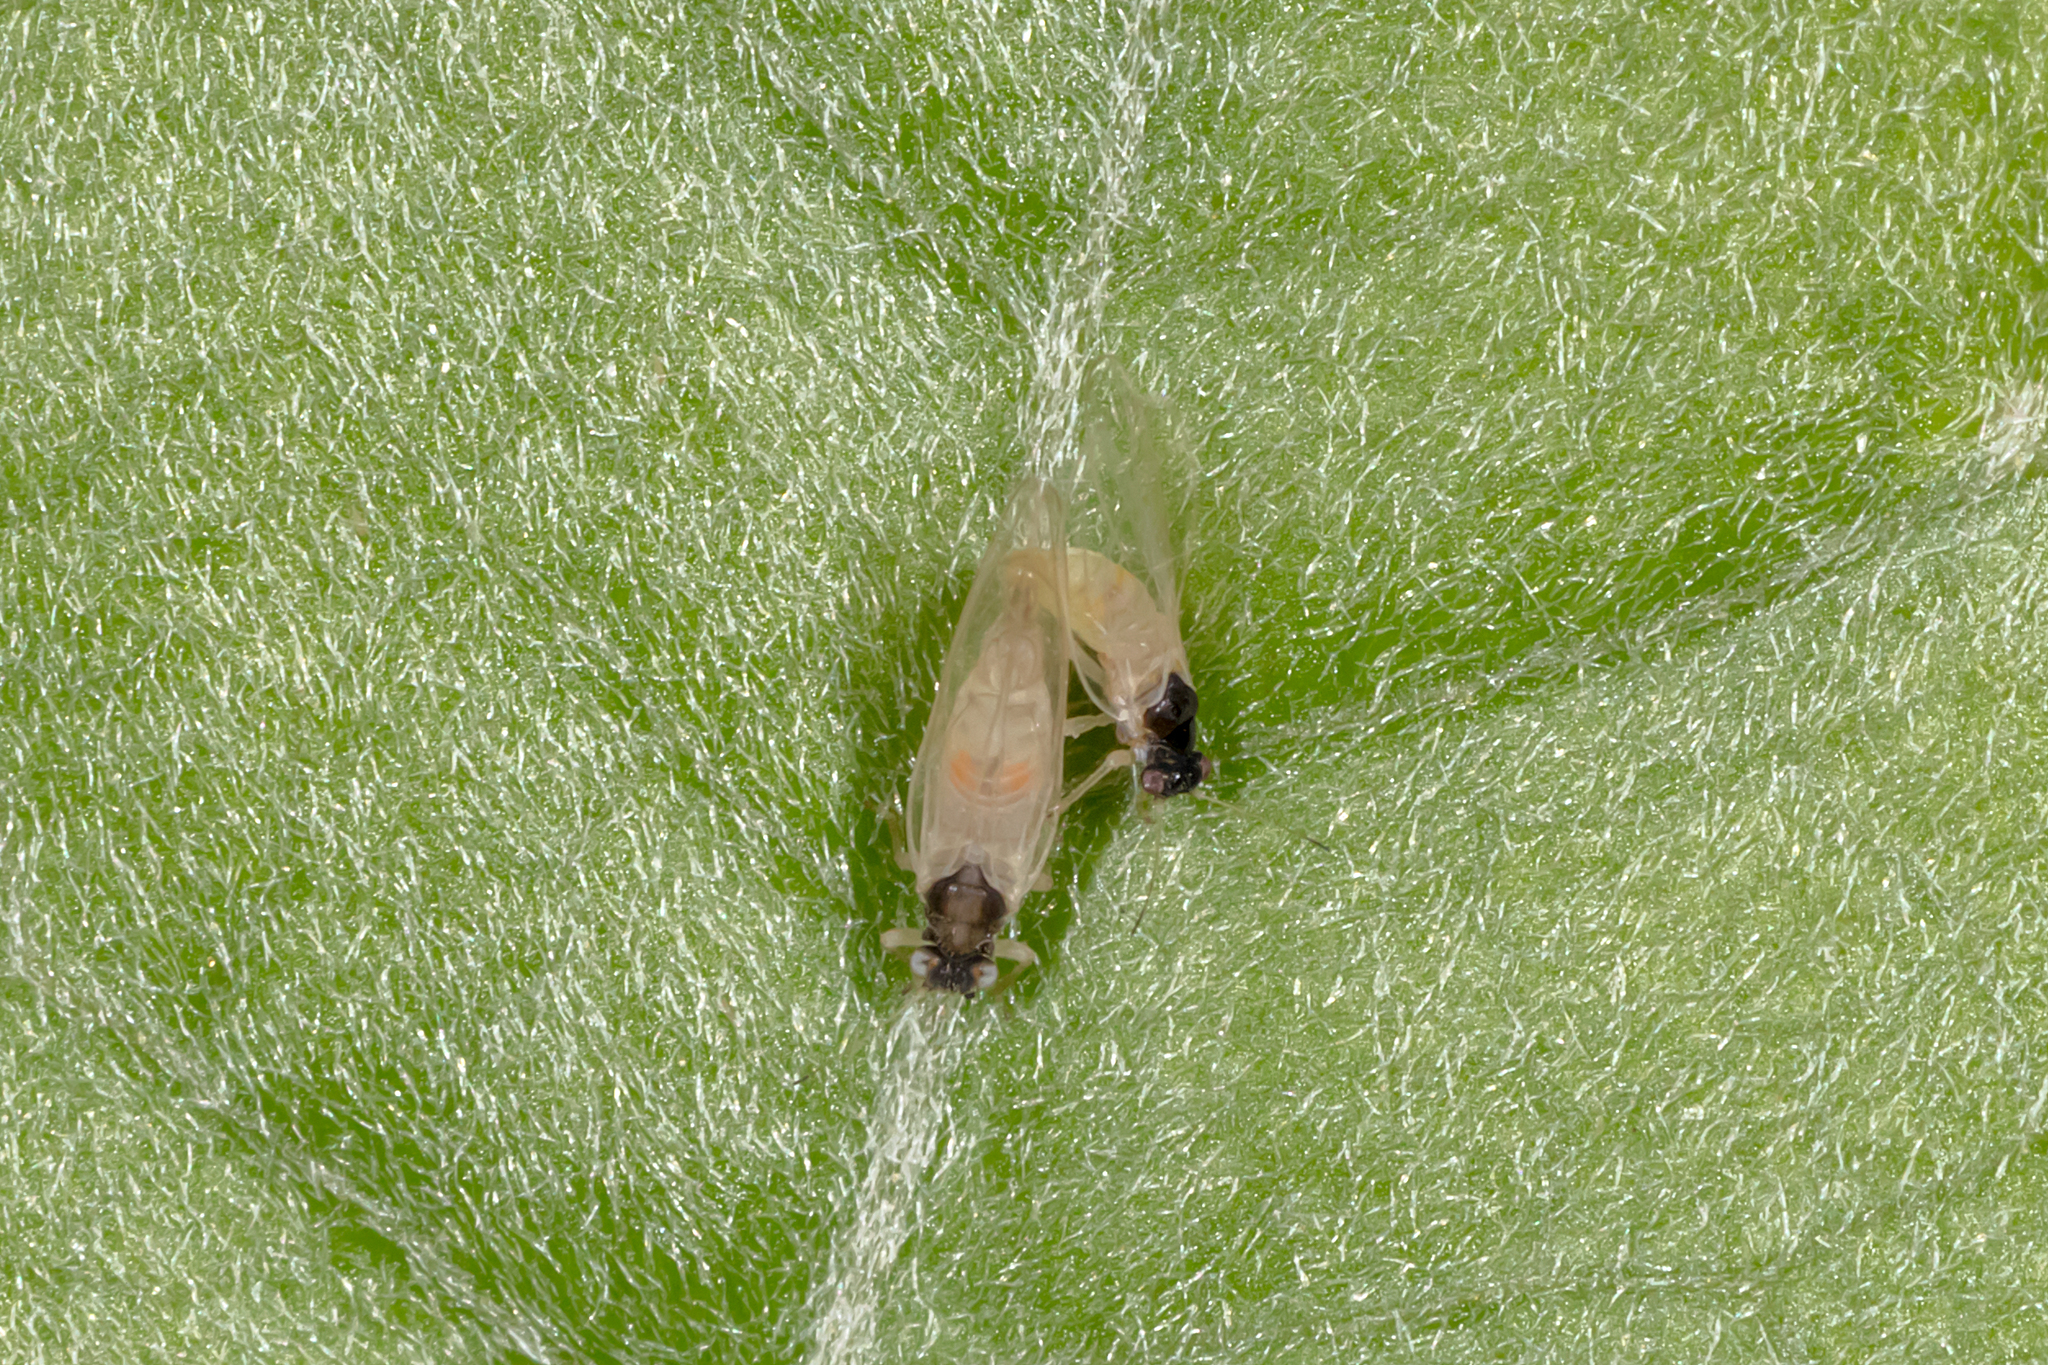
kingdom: Animalia
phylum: Arthropoda
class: Insecta
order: Hemiptera
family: Psyllidae
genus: Acizzia
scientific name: Acizzia solanicola
